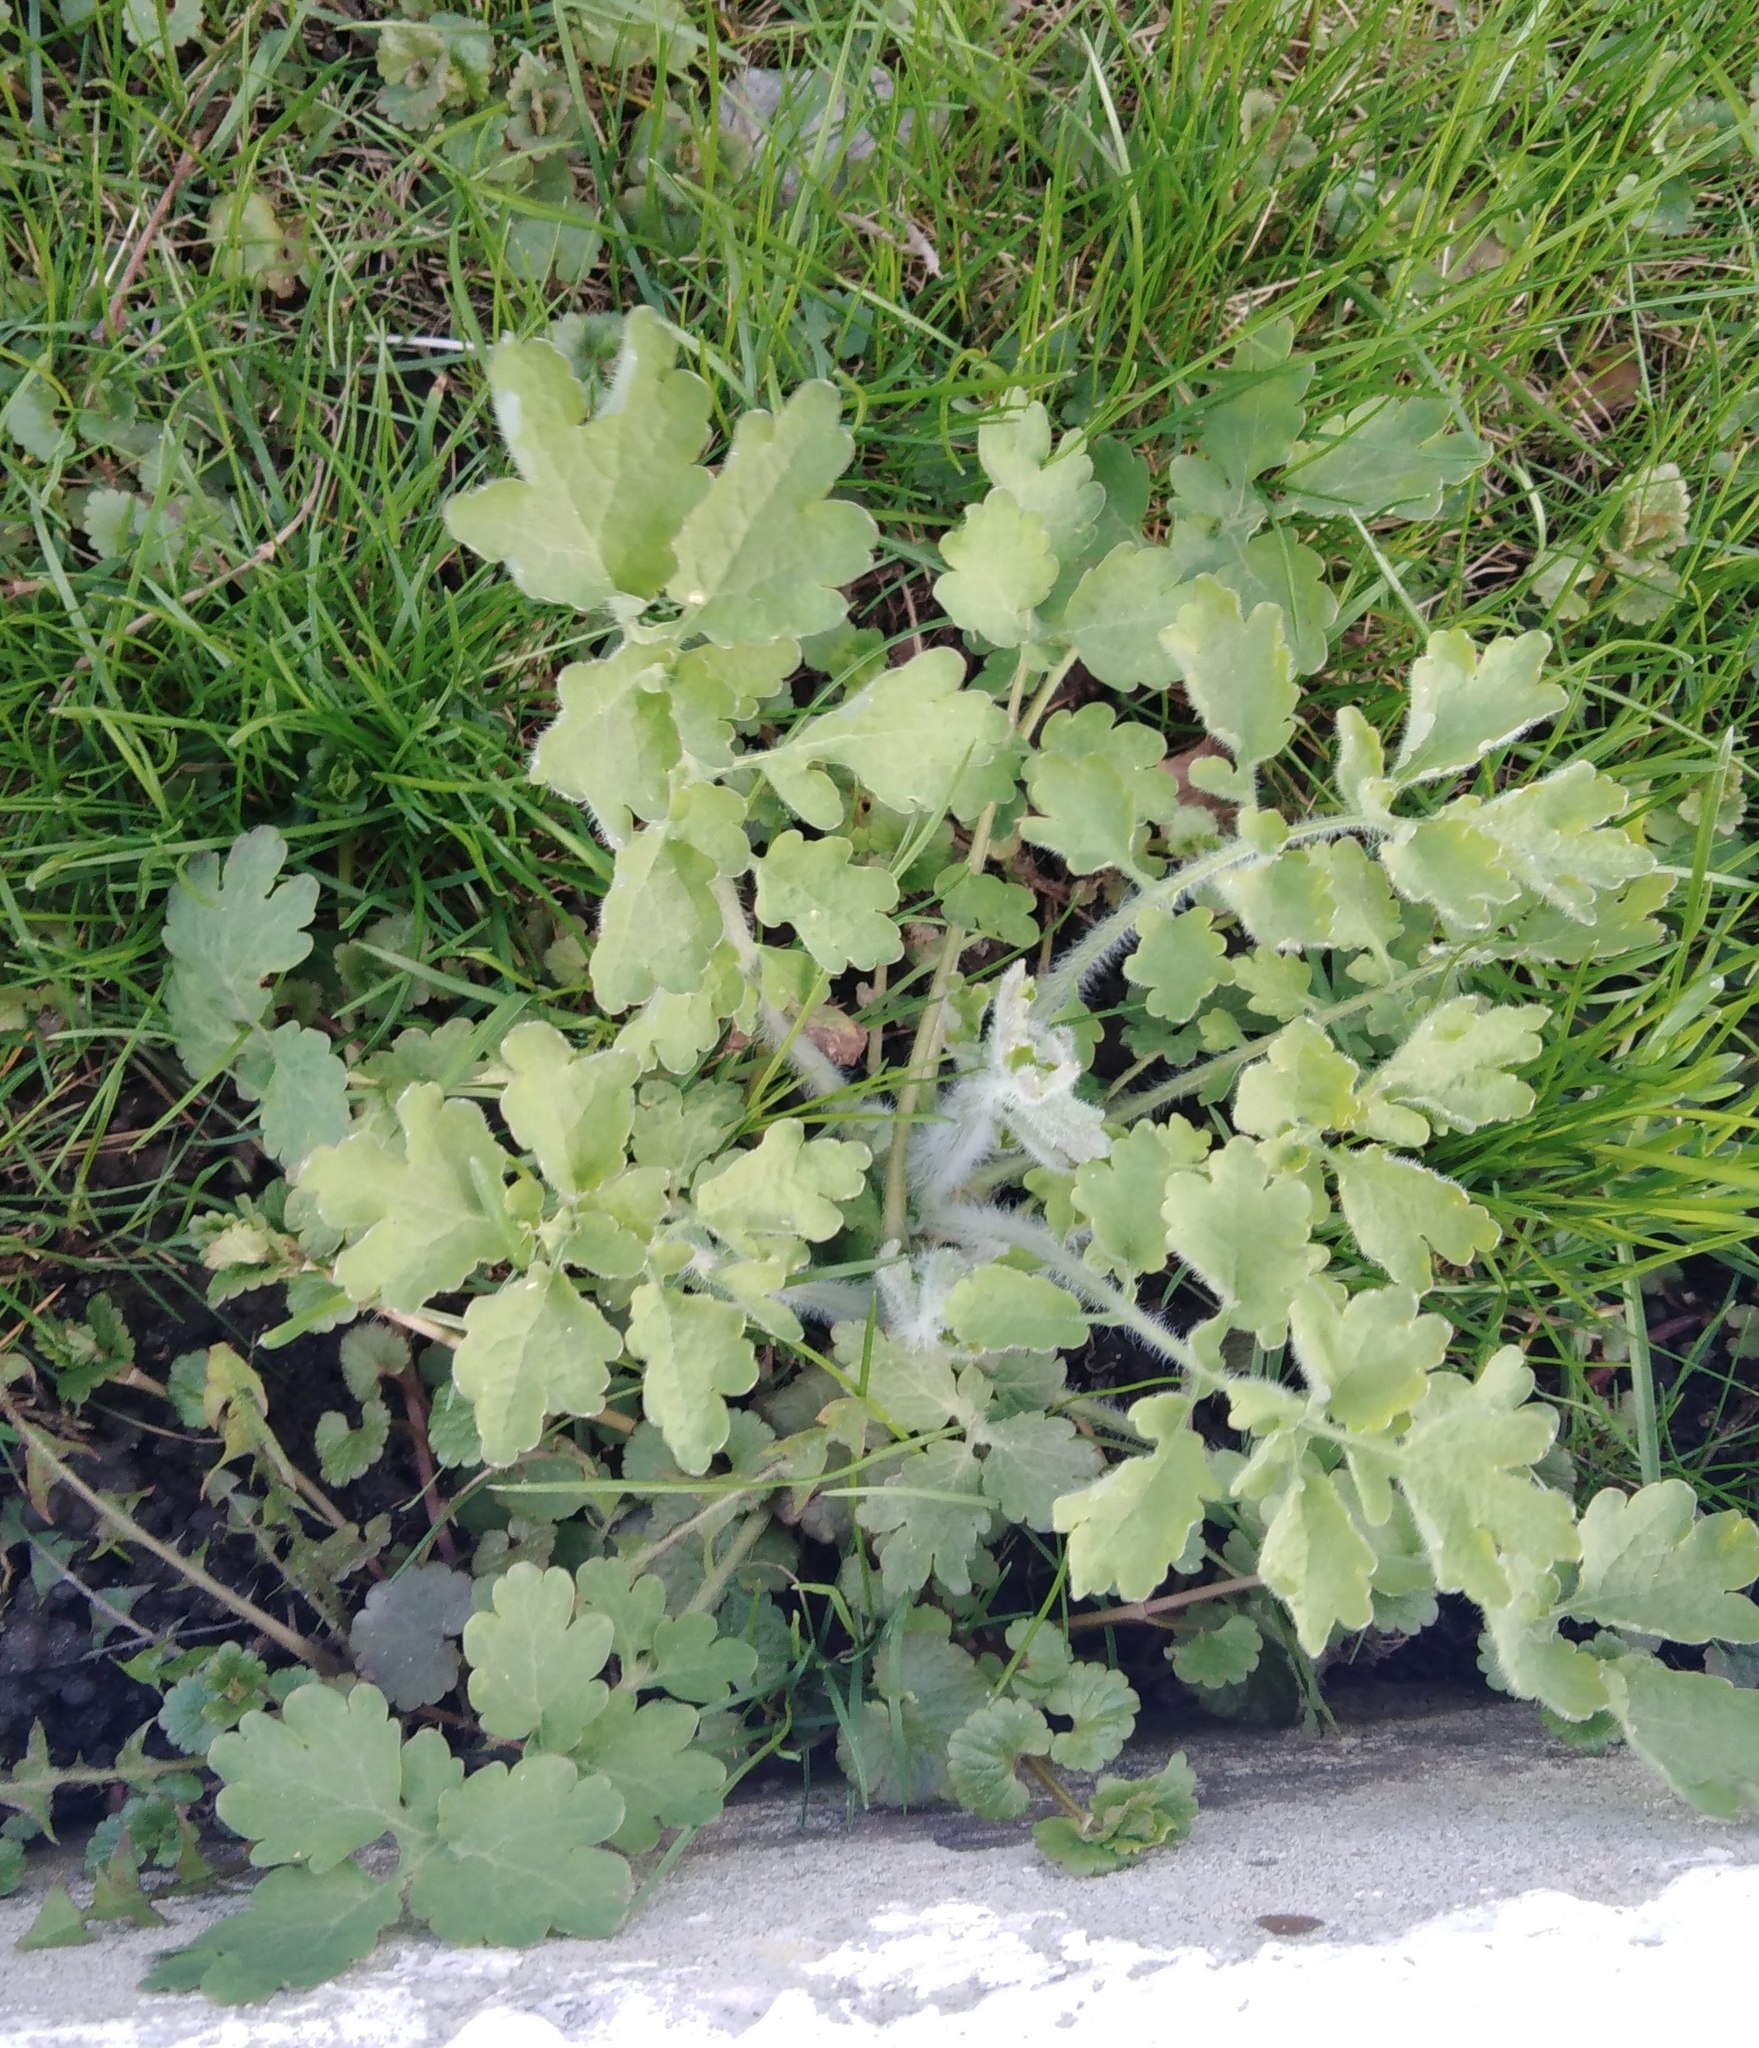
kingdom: Plantae
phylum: Tracheophyta
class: Magnoliopsida
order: Ranunculales
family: Papaveraceae
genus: Chelidonium
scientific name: Chelidonium majus
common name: Greater celandine
